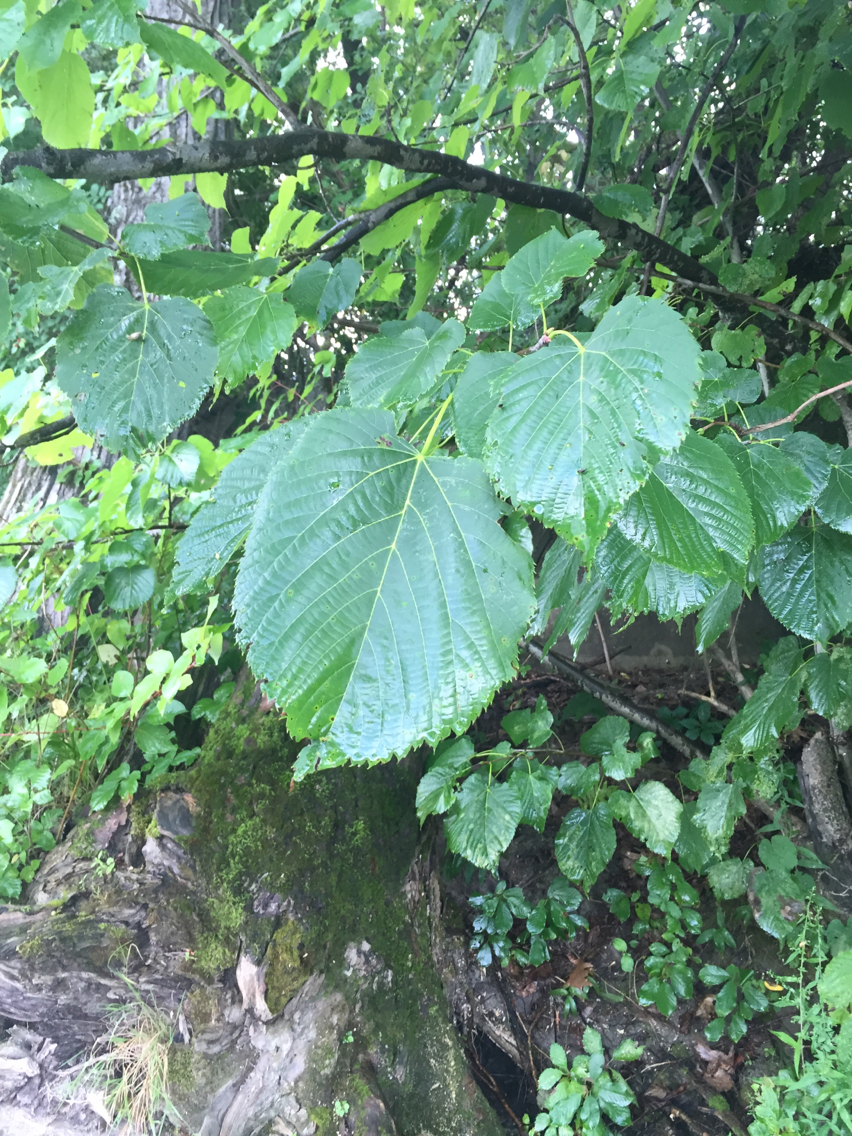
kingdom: Plantae
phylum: Tracheophyta
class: Magnoliopsida
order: Malvales
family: Malvaceae
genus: Tilia
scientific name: Tilia americana
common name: Basswood
